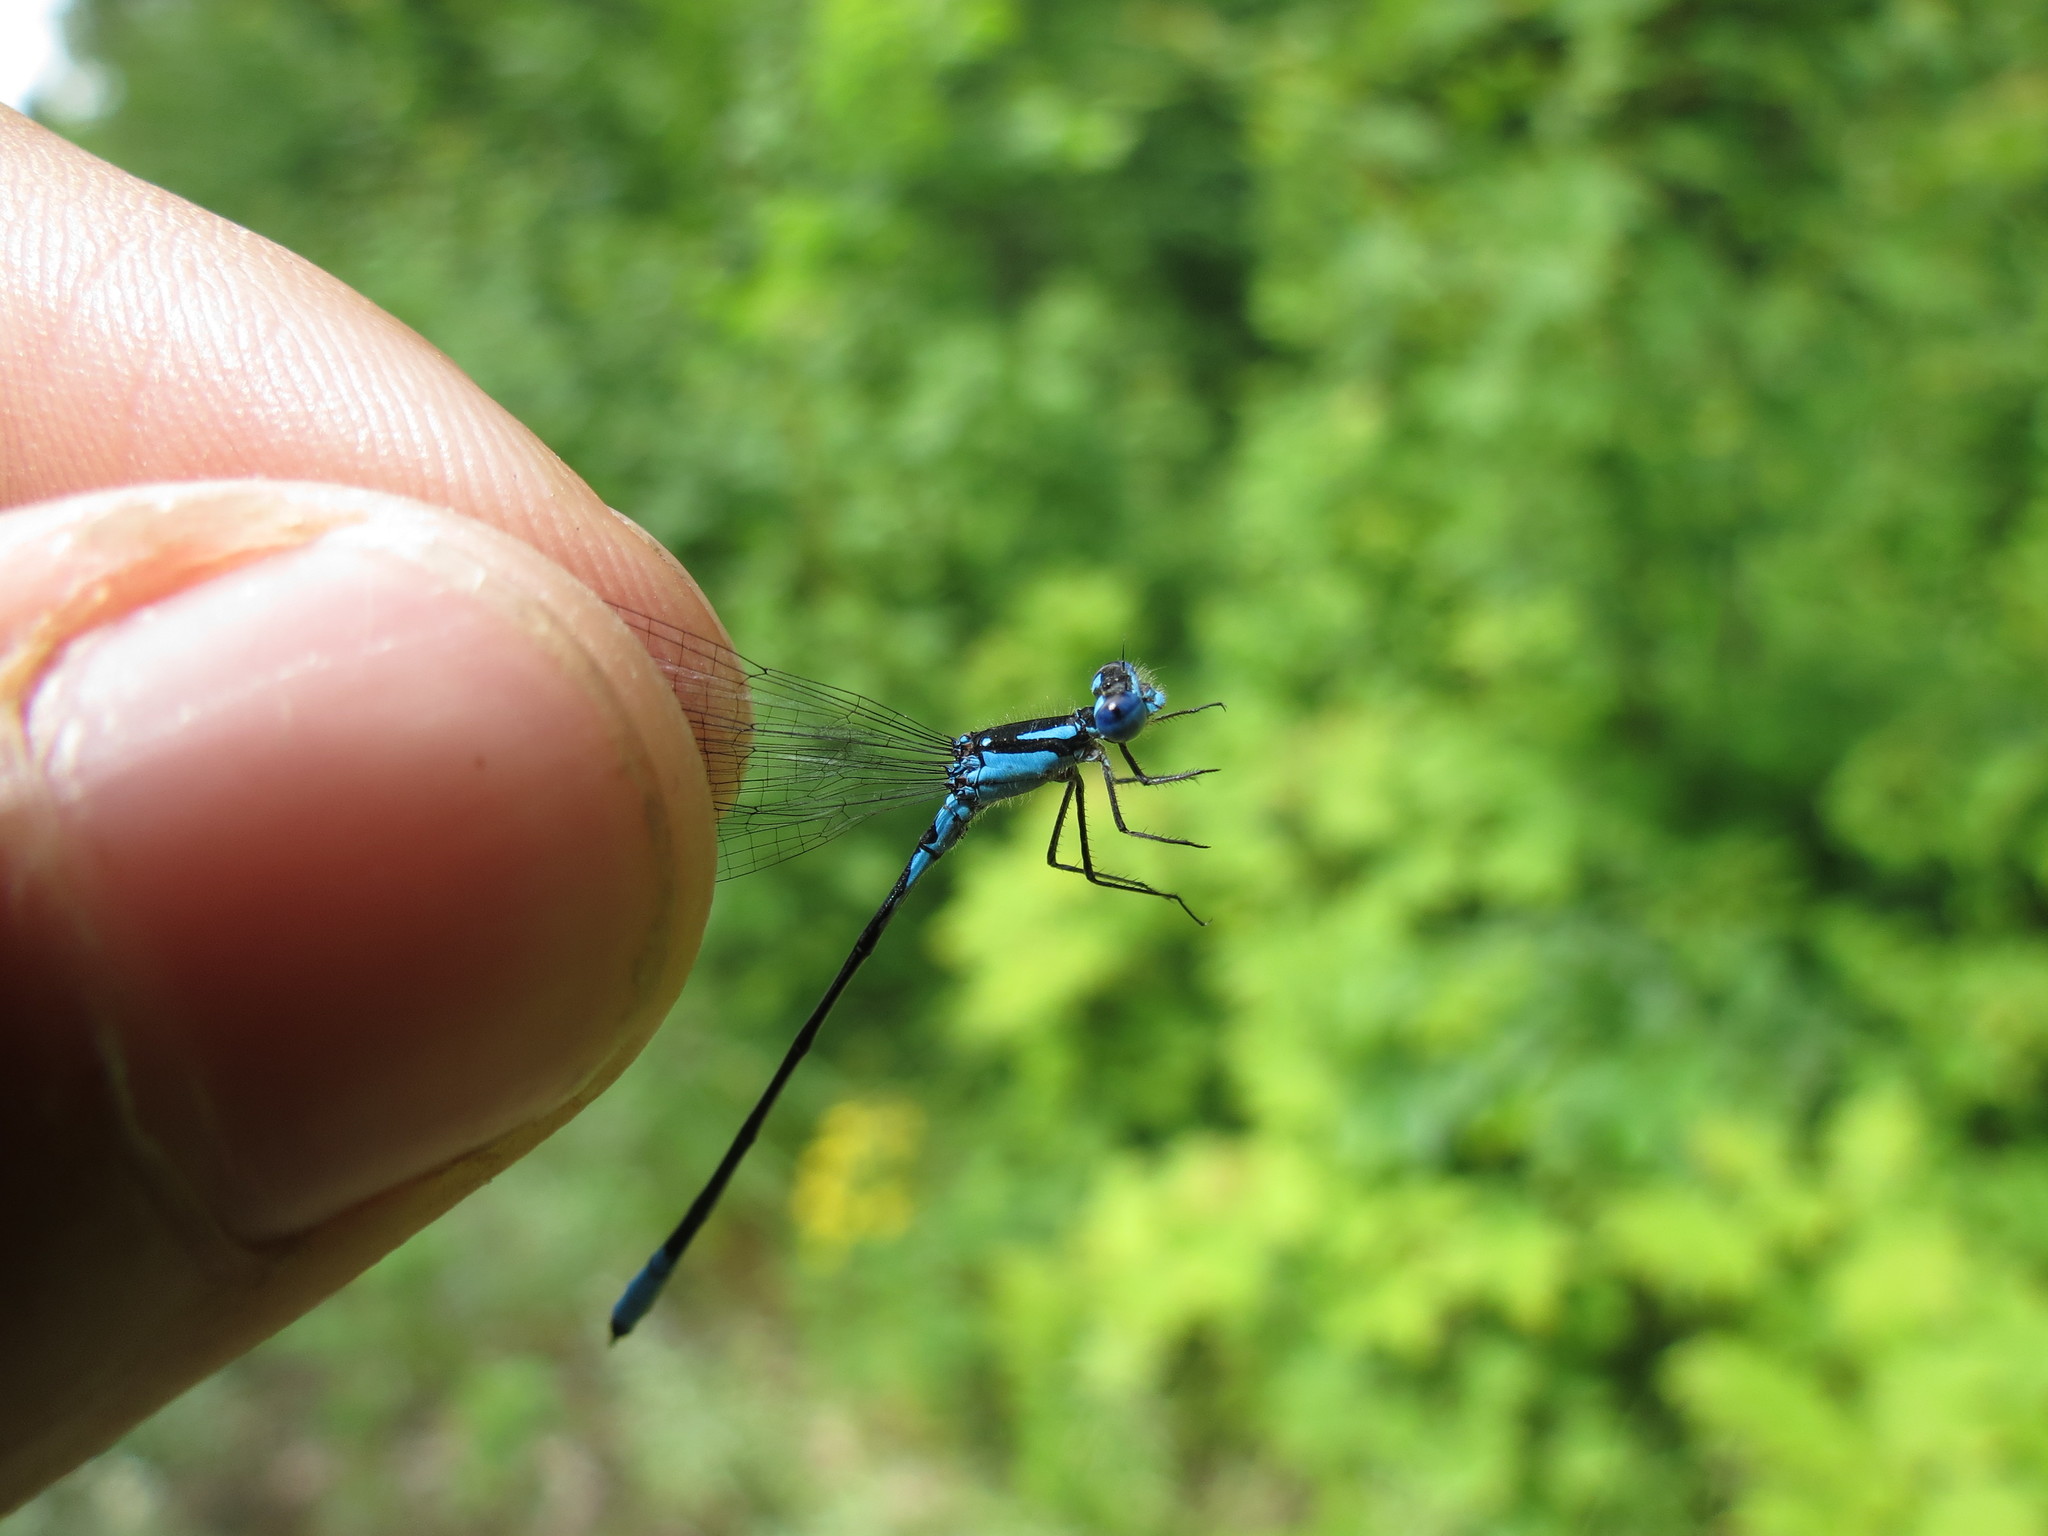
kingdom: Animalia
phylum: Arthropoda
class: Insecta
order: Odonata
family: Coenagrionidae
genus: Enallagma
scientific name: Enallagma aspersum
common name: Azure bluet
